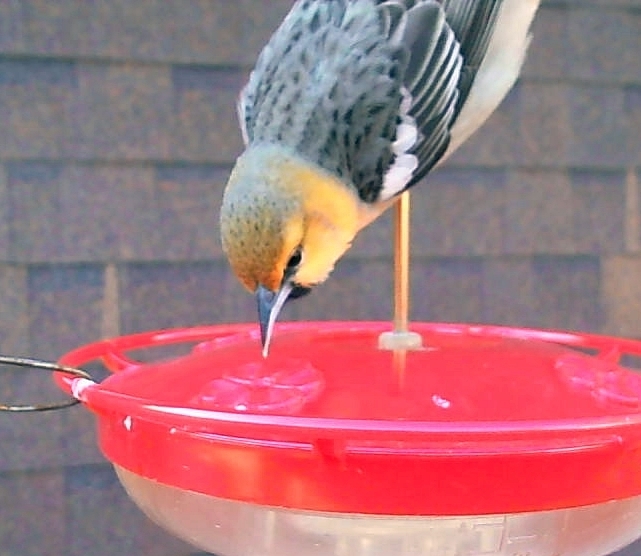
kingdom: Animalia
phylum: Chordata
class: Aves
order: Passeriformes
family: Icteridae
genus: Icterus
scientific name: Icterus bullockii
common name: Bullock's oriole
